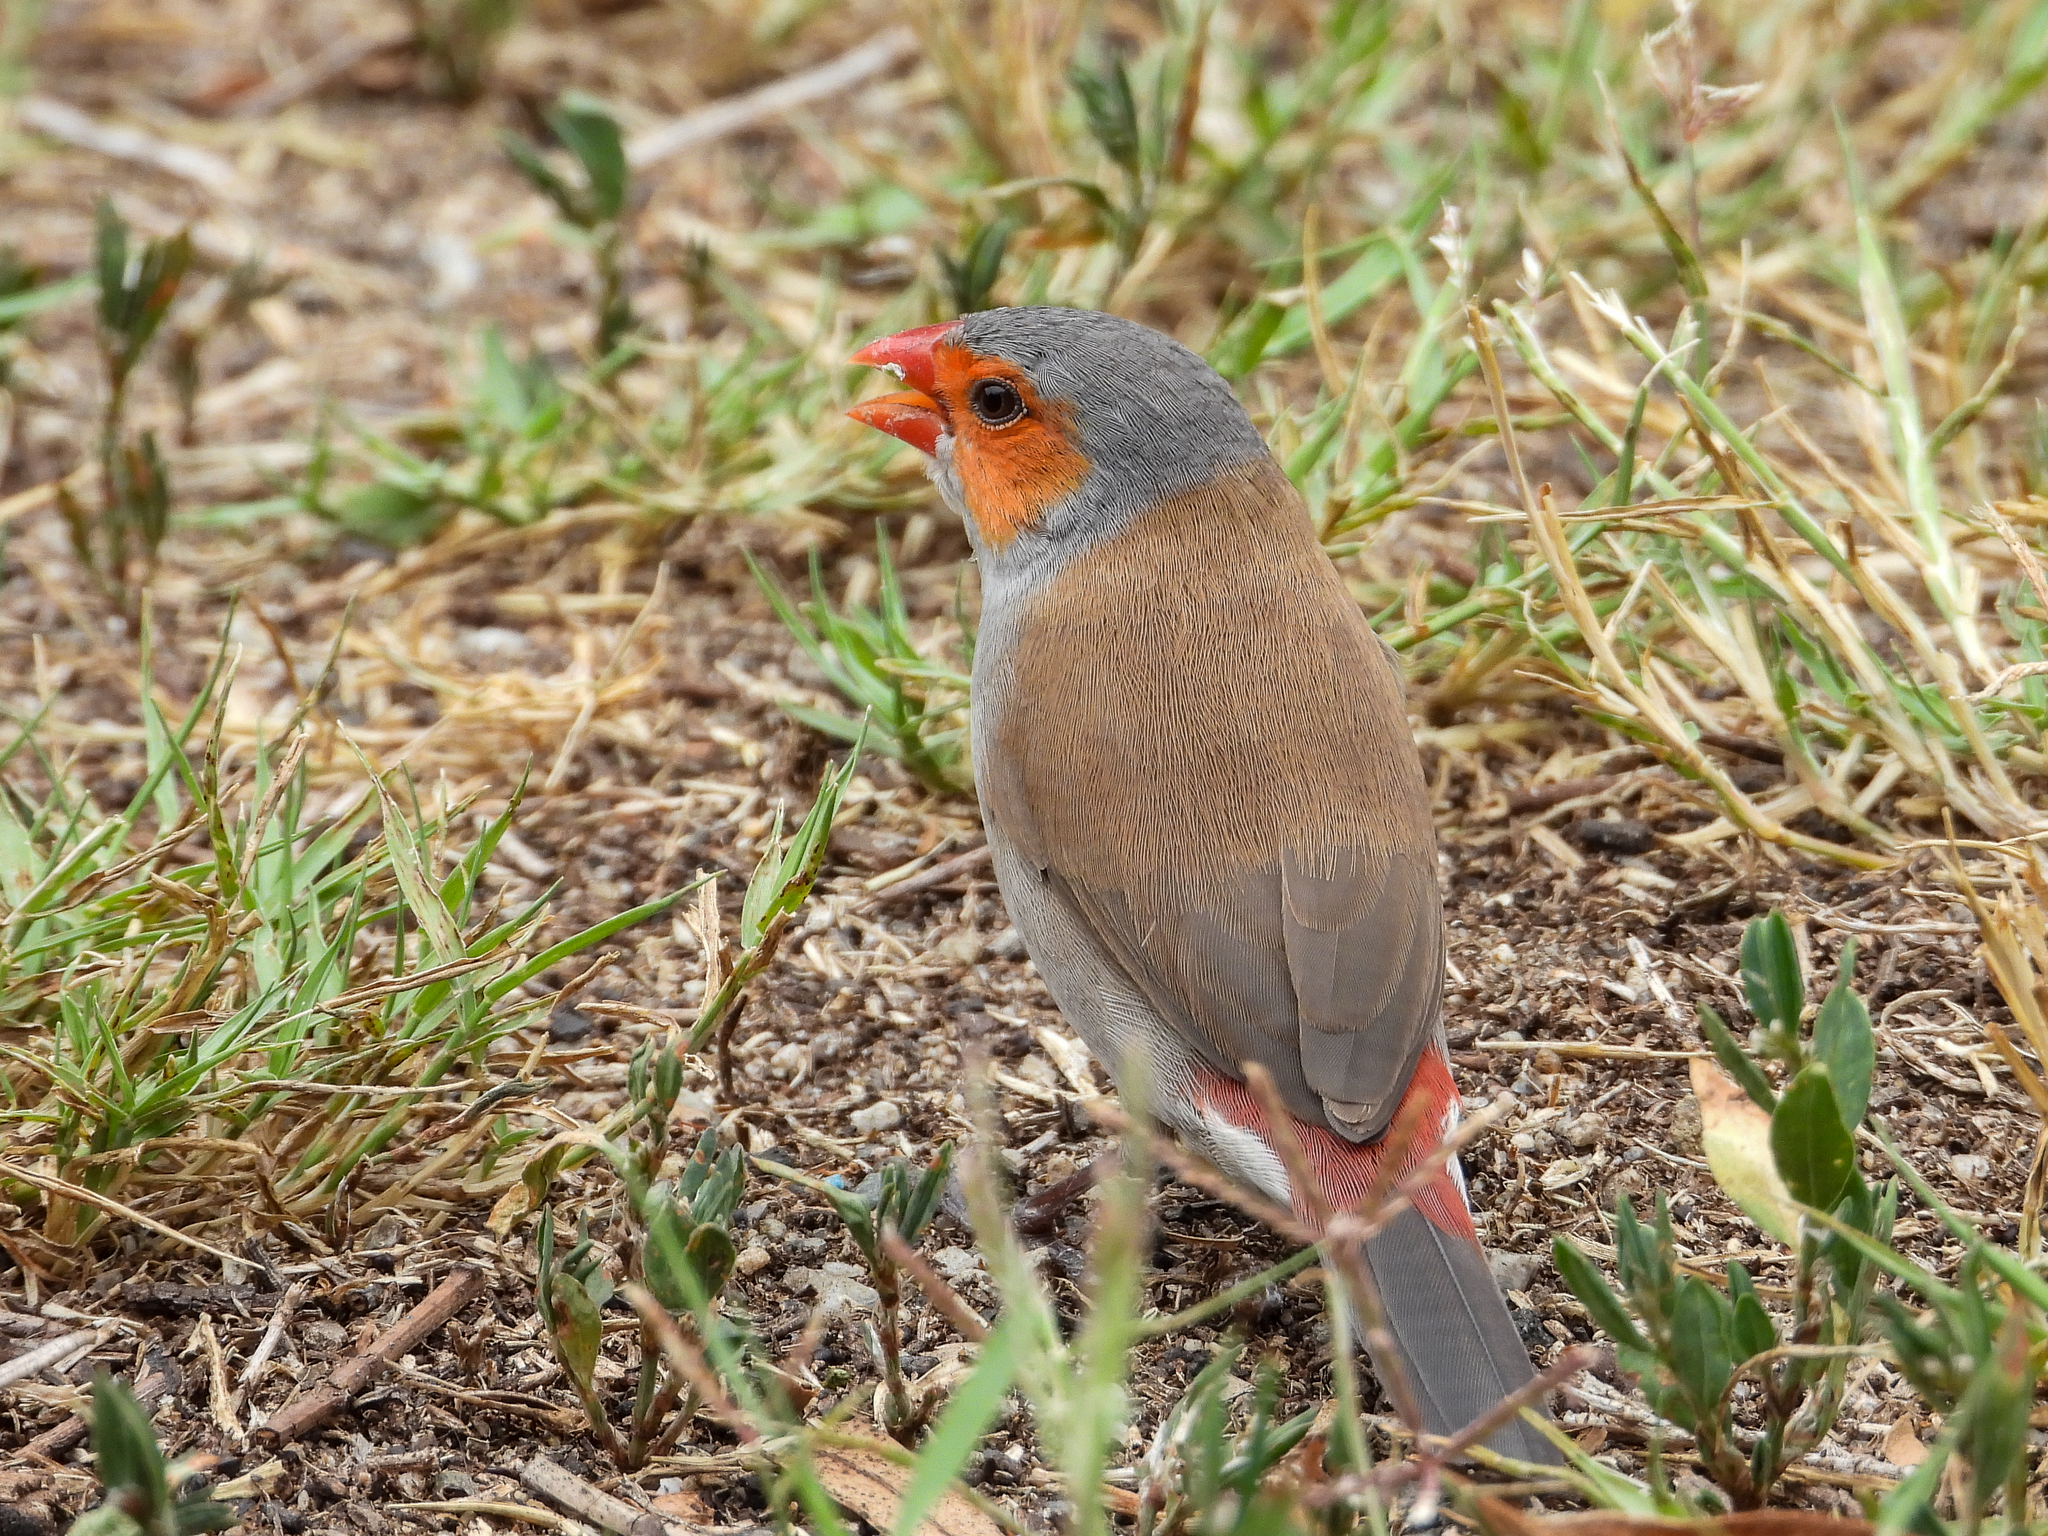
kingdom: Animalia
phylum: Chordata
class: Aves
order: Passeriformes
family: Estrildidae
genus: Estrilda
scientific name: Estrilda melpoda
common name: Orange-cheeked waxbill
